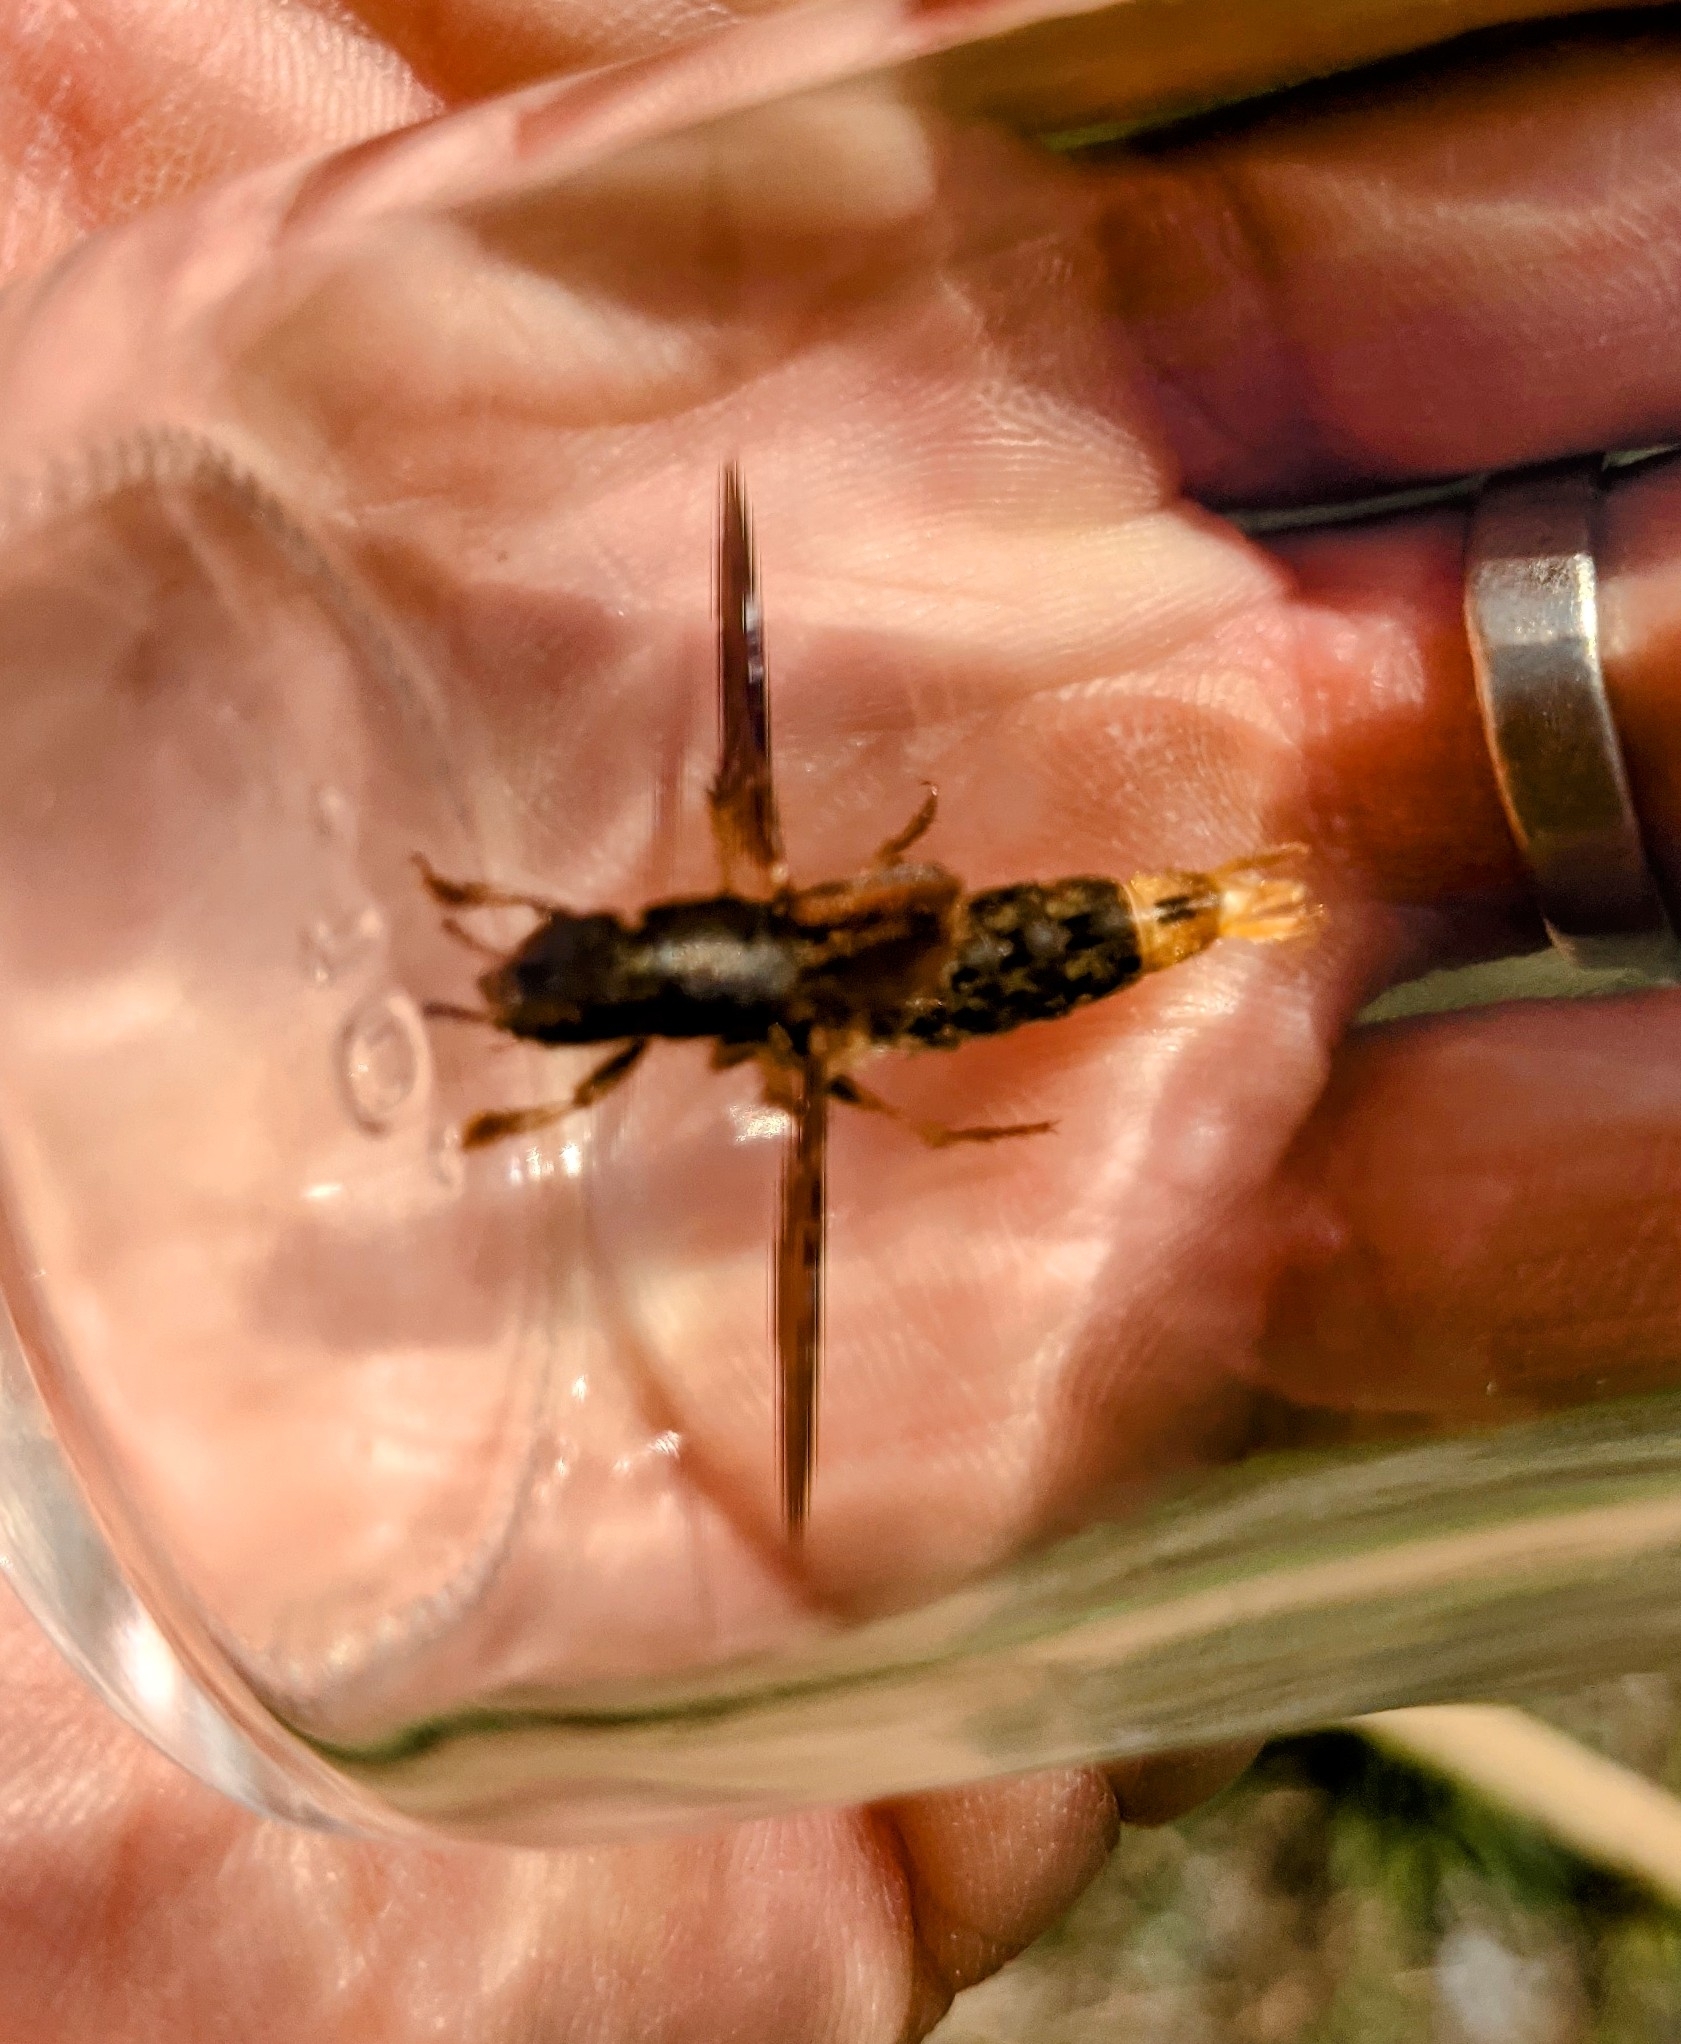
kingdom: Animalia
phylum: Arthropoda
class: Insecta
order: Coleoptera
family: Staphylinidae
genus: Platydracus
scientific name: Platydracus maculosus
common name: Brown rove beetle
